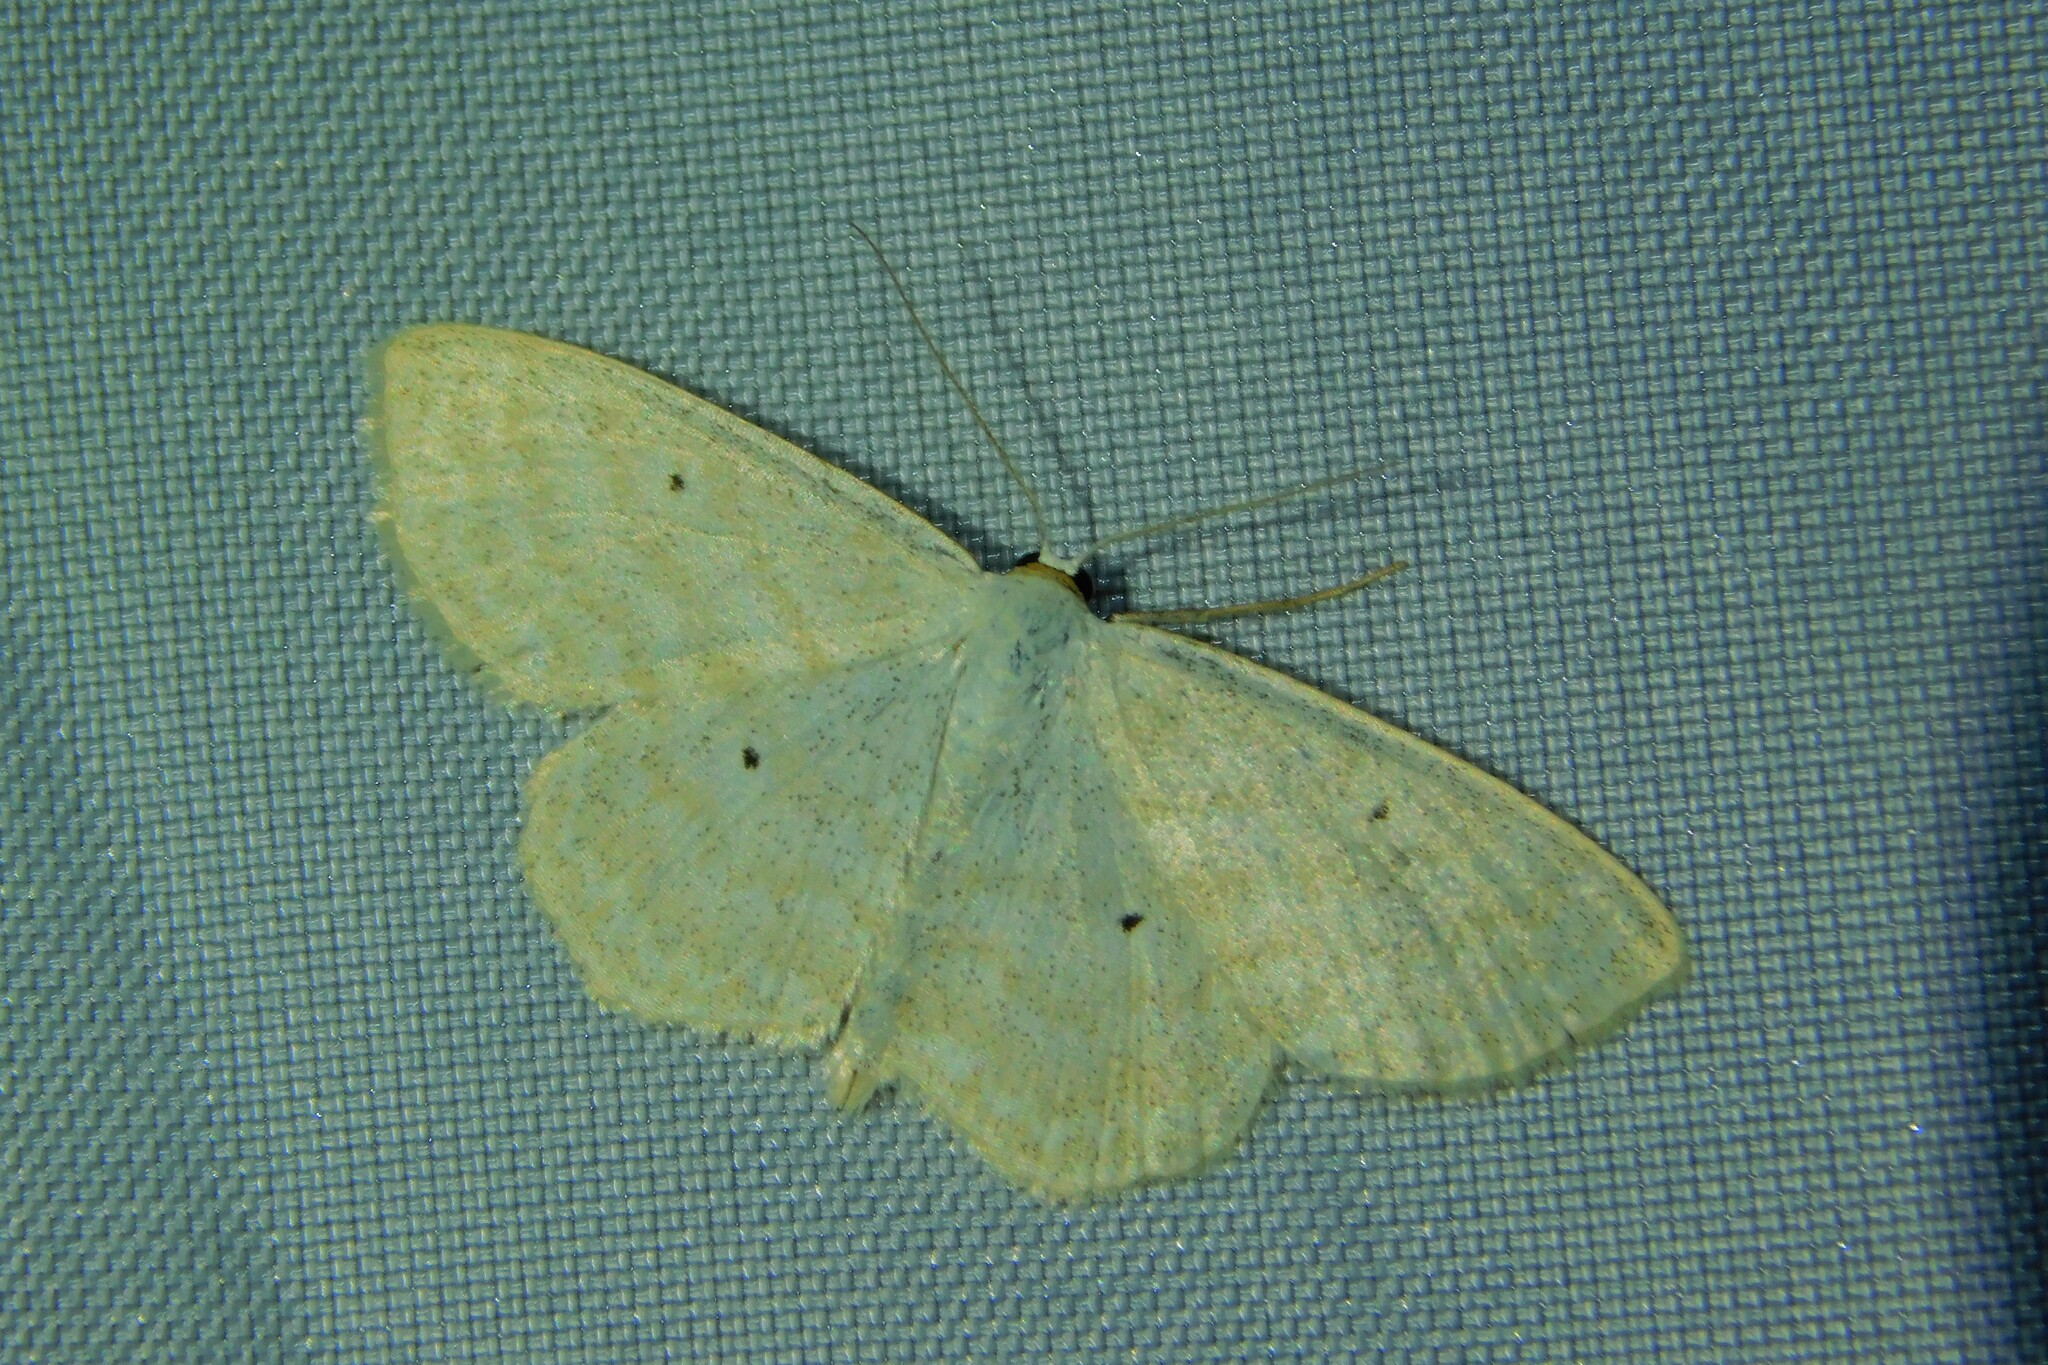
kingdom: Animalia
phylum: Arthropoda
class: Insecta
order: Lepidoptera
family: Geometridae
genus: Scopula
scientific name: Scopula immutata
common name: Lesser cream wave
